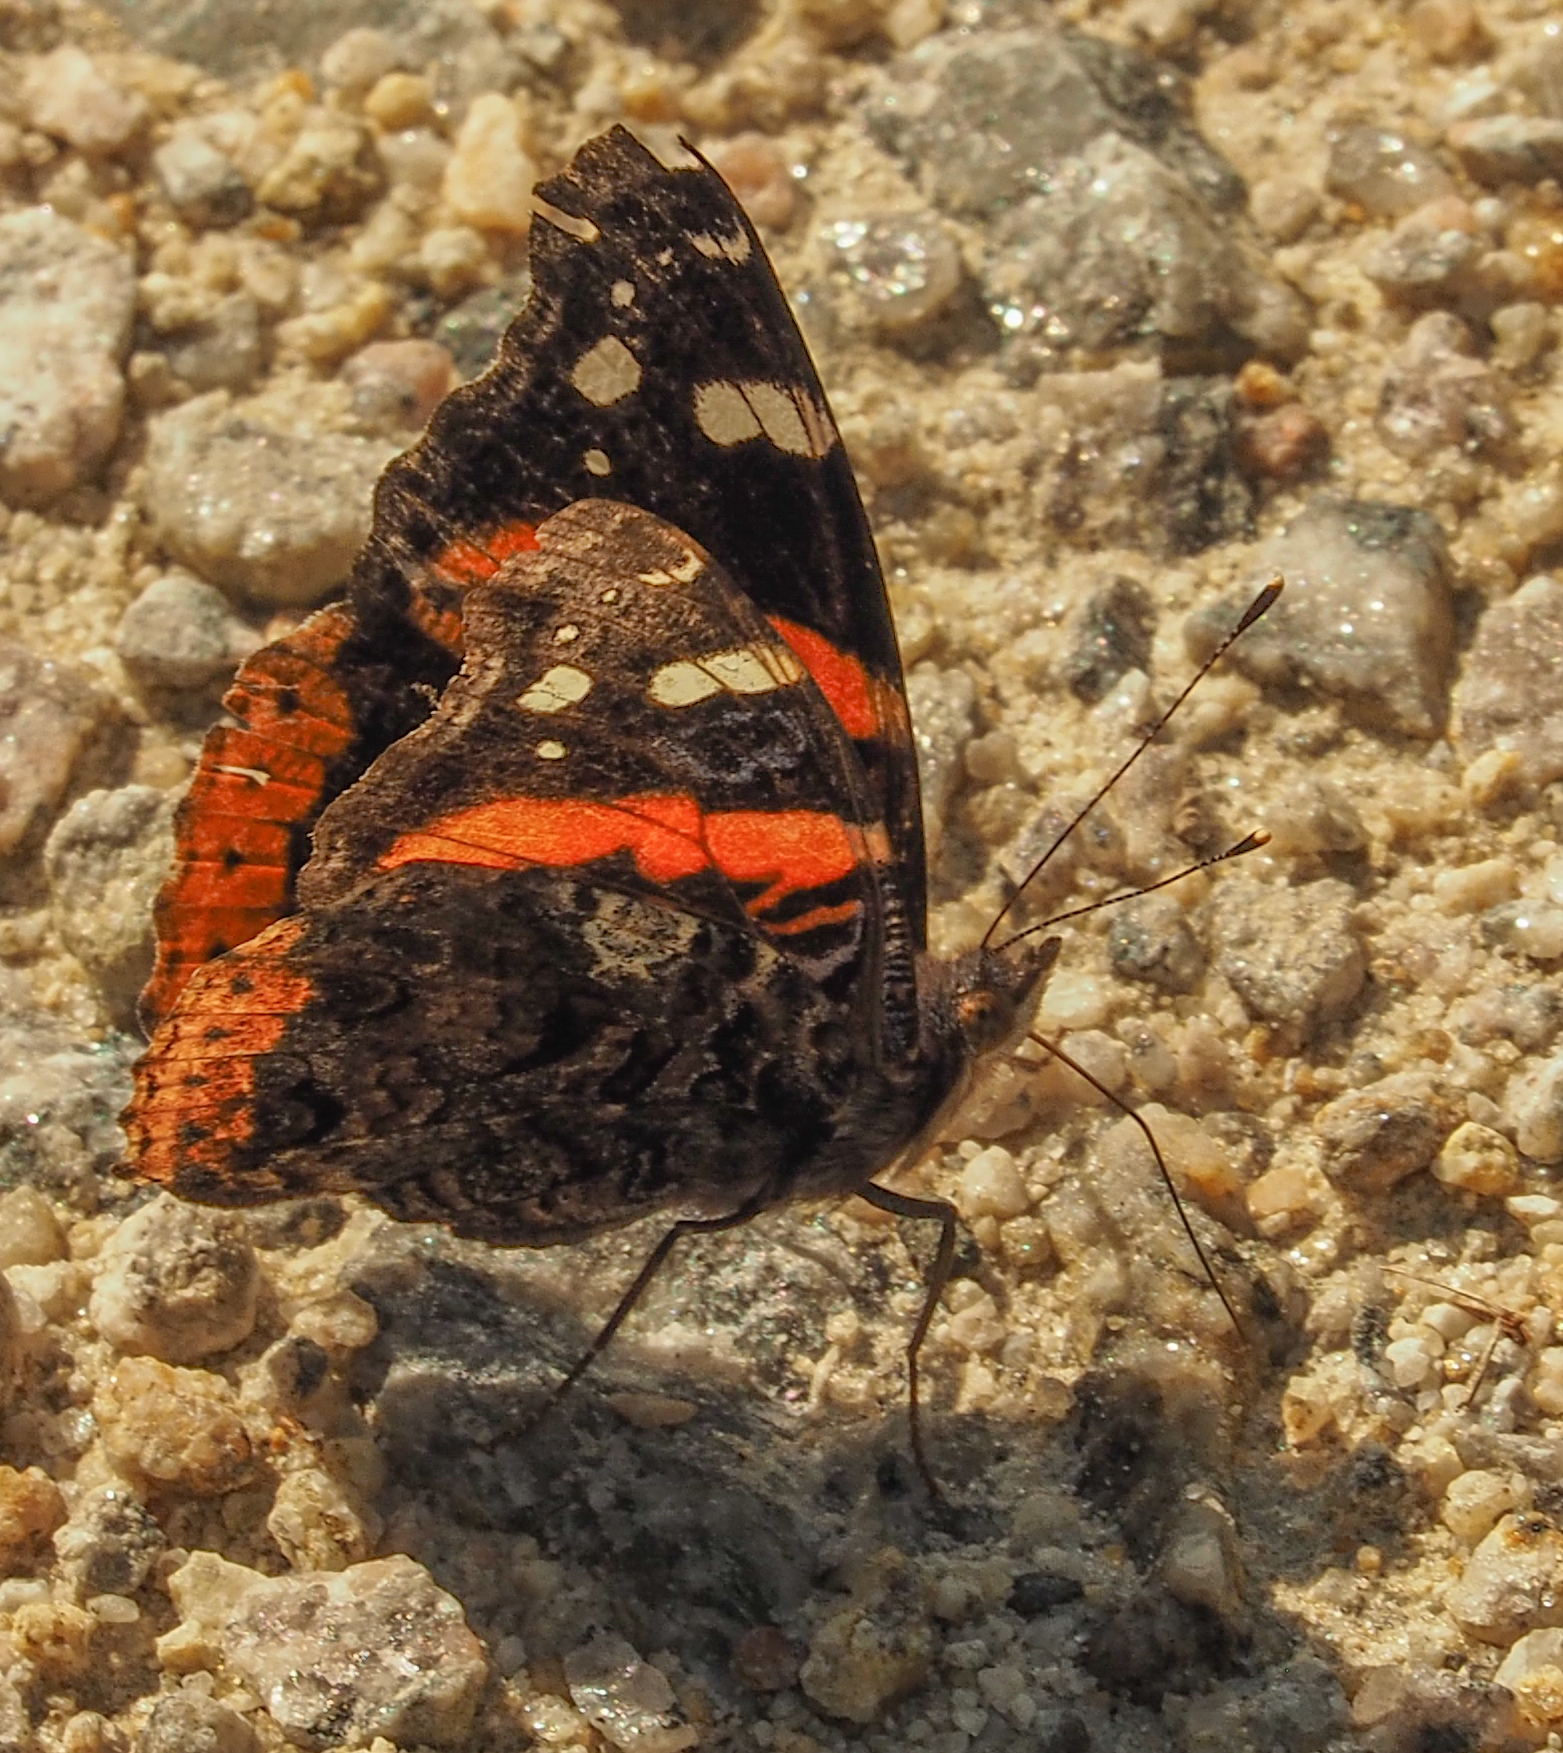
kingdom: Animalia
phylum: Arthropoda
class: Insecta
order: Lepidoptera
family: Nymphalidae
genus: Vanessa
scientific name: Vanessa atalanta
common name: Red admiral
